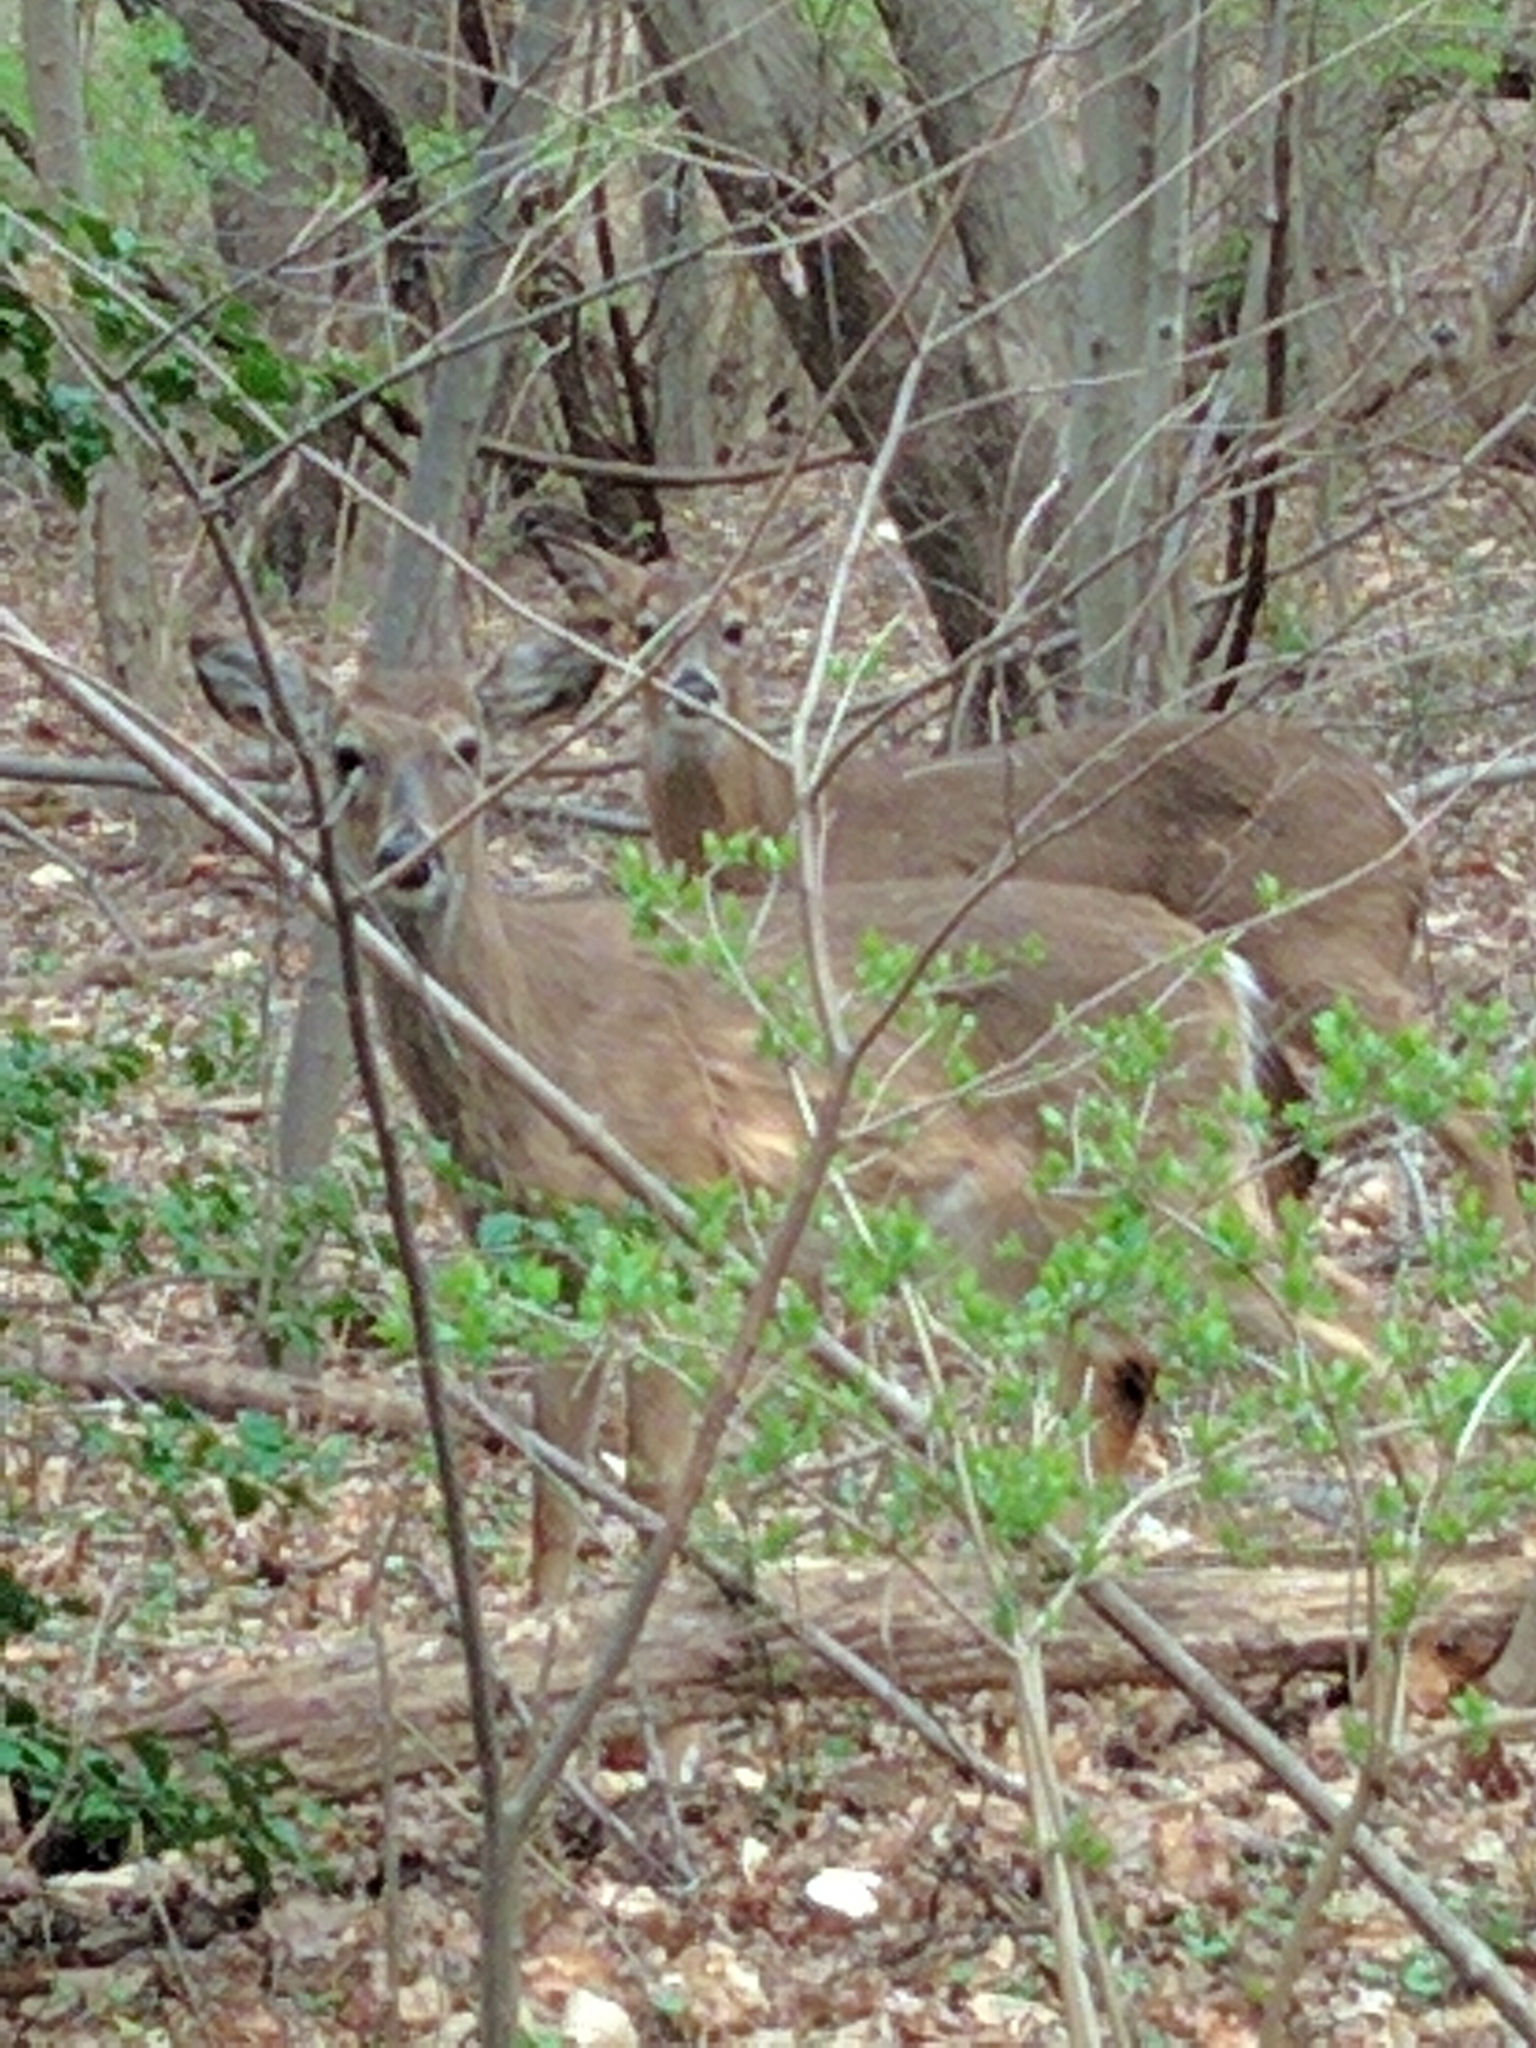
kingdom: Animalia
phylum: Chordata
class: Mammalia
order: Artiodactyla
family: Cervidae
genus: Odocoileus
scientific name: Odocoileus virginianus
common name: White-tailed deer
